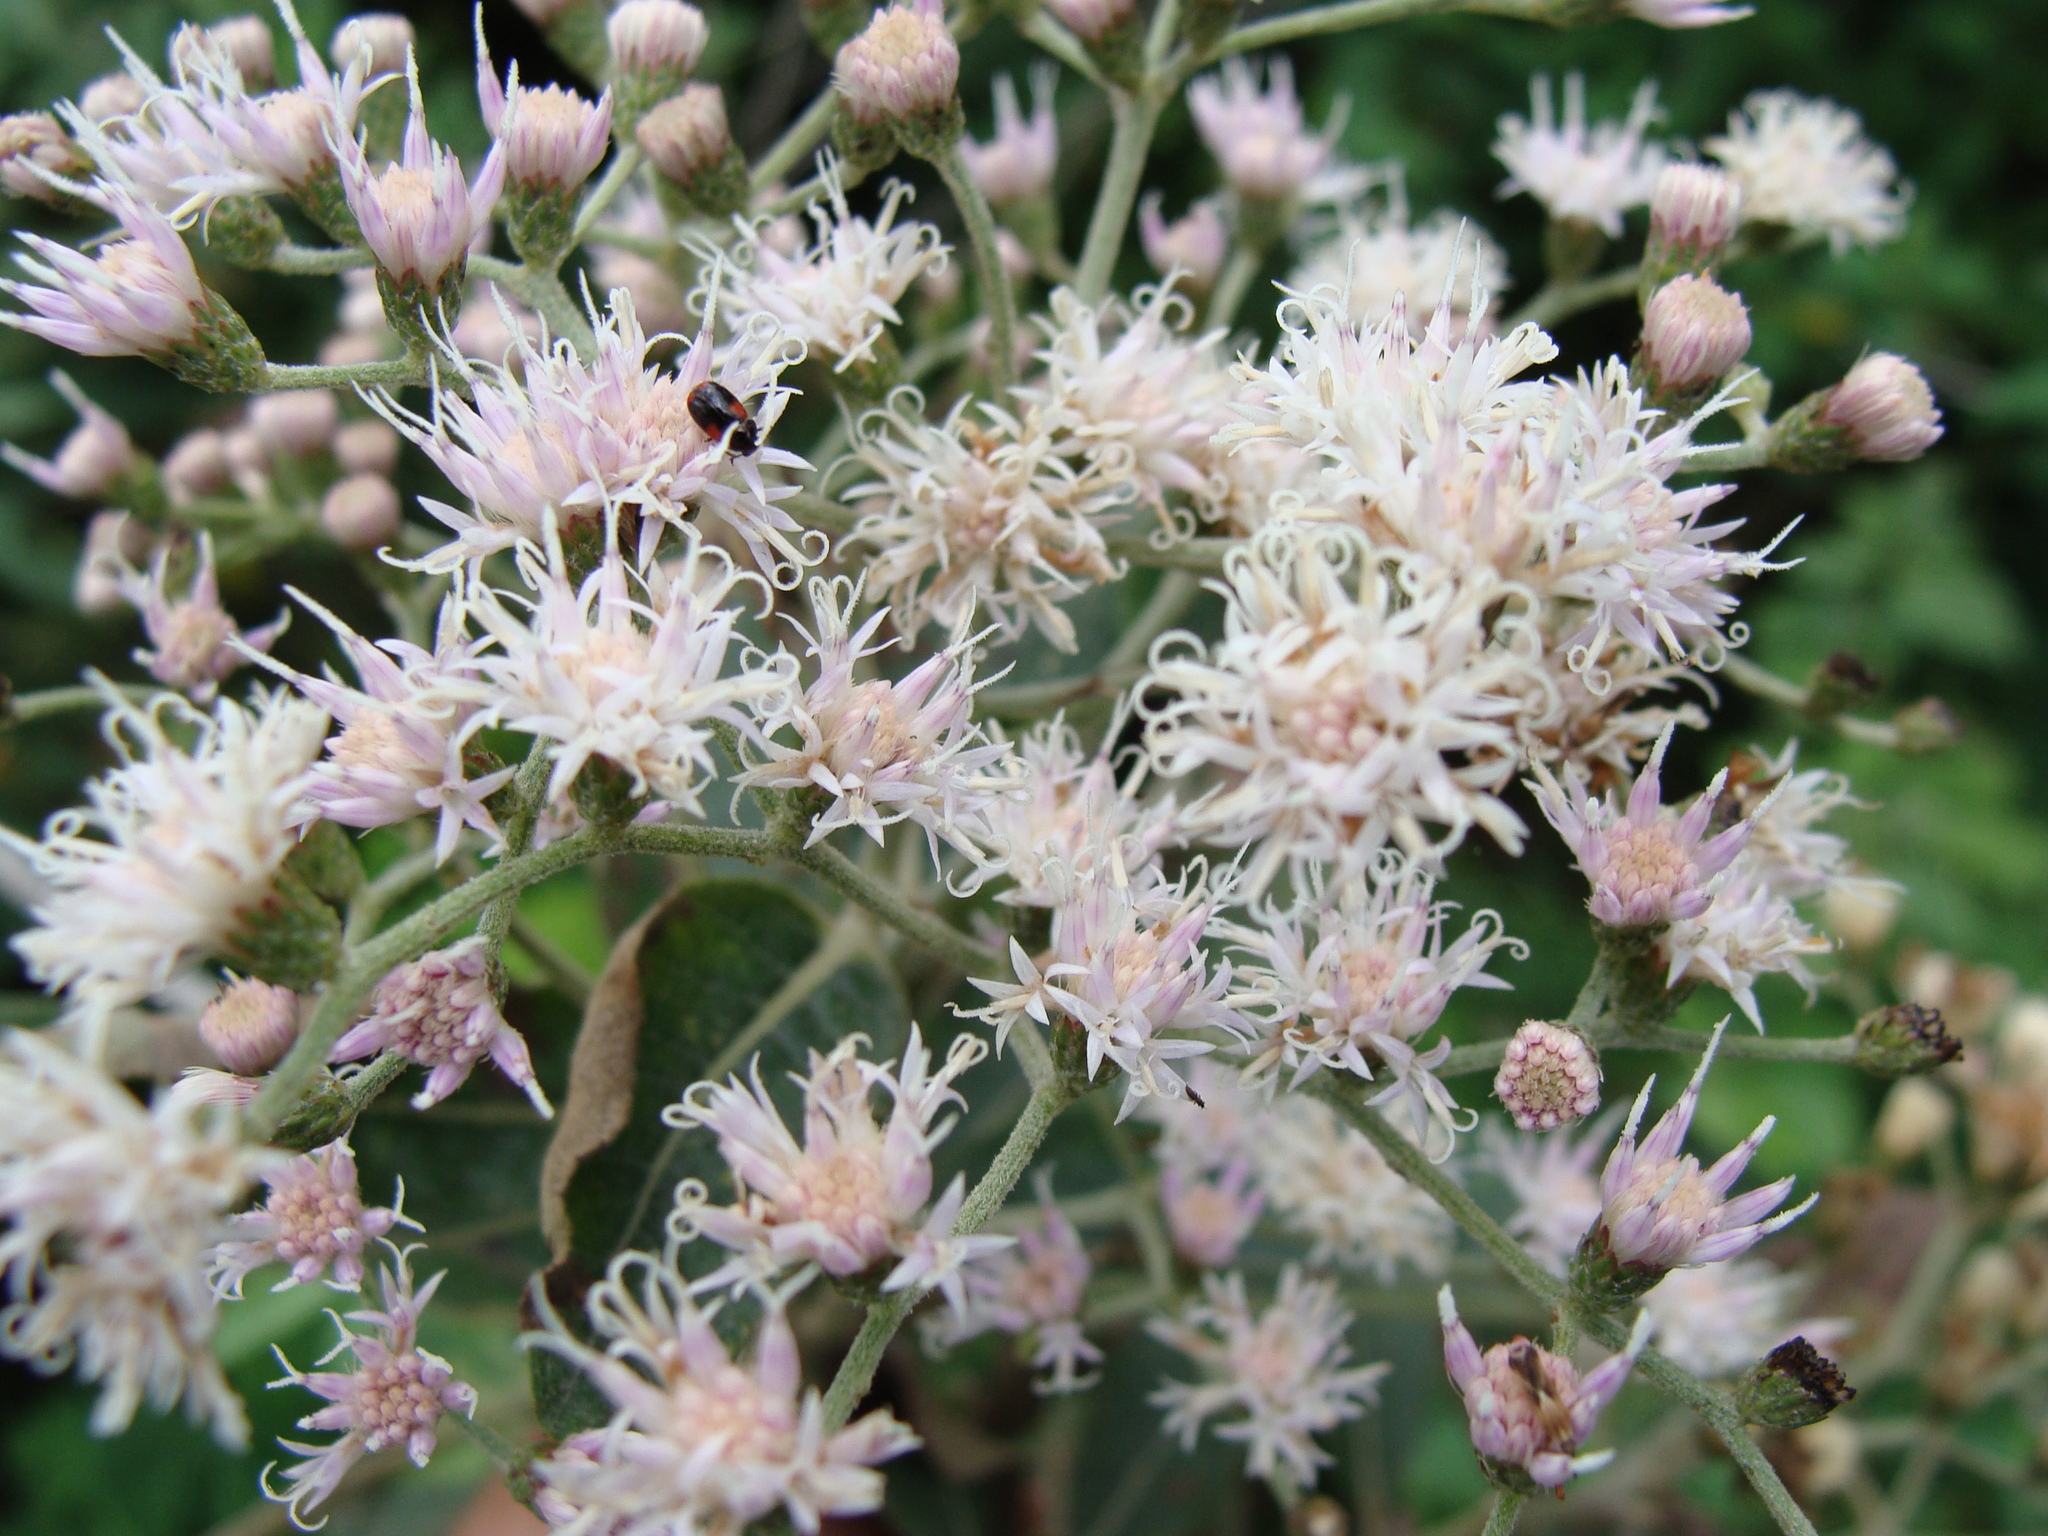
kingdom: Plantae
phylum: Tracheophyta
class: Magnoliopsida
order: Asterales
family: Asteraceae
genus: Lepidaploa
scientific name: Lepidaploa polypleura
